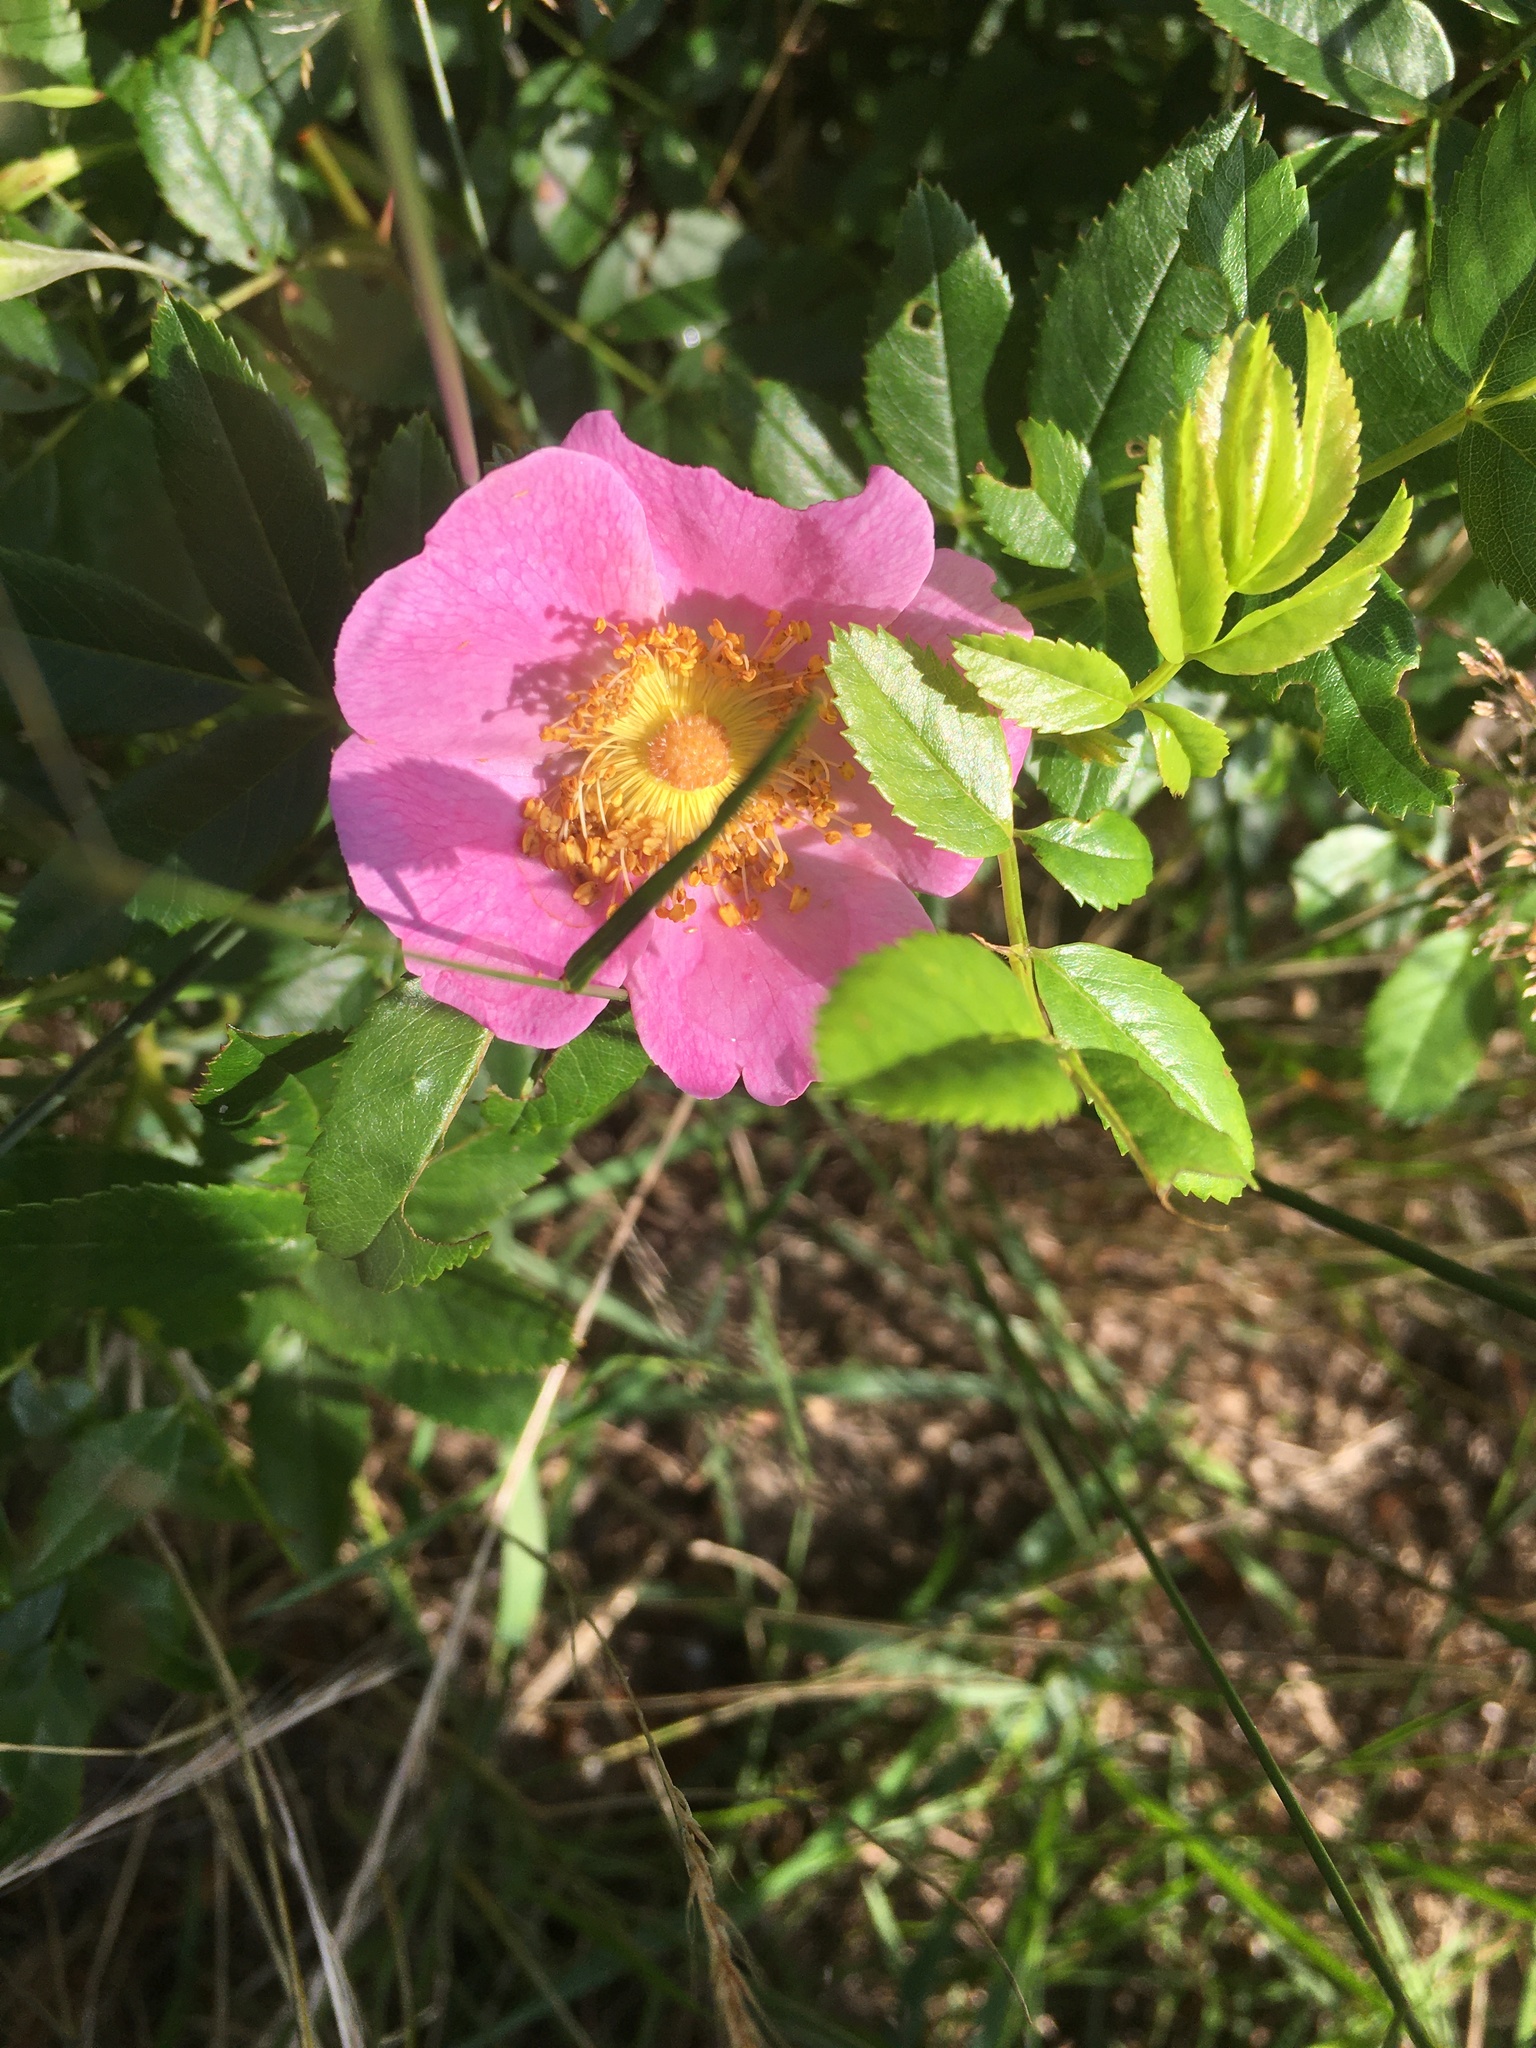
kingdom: Plantae
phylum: Tracheophyta
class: Magnoliopsida
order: Rosales
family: Rosaceae
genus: Rosa
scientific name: Rosa carolina
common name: Pasture rose
